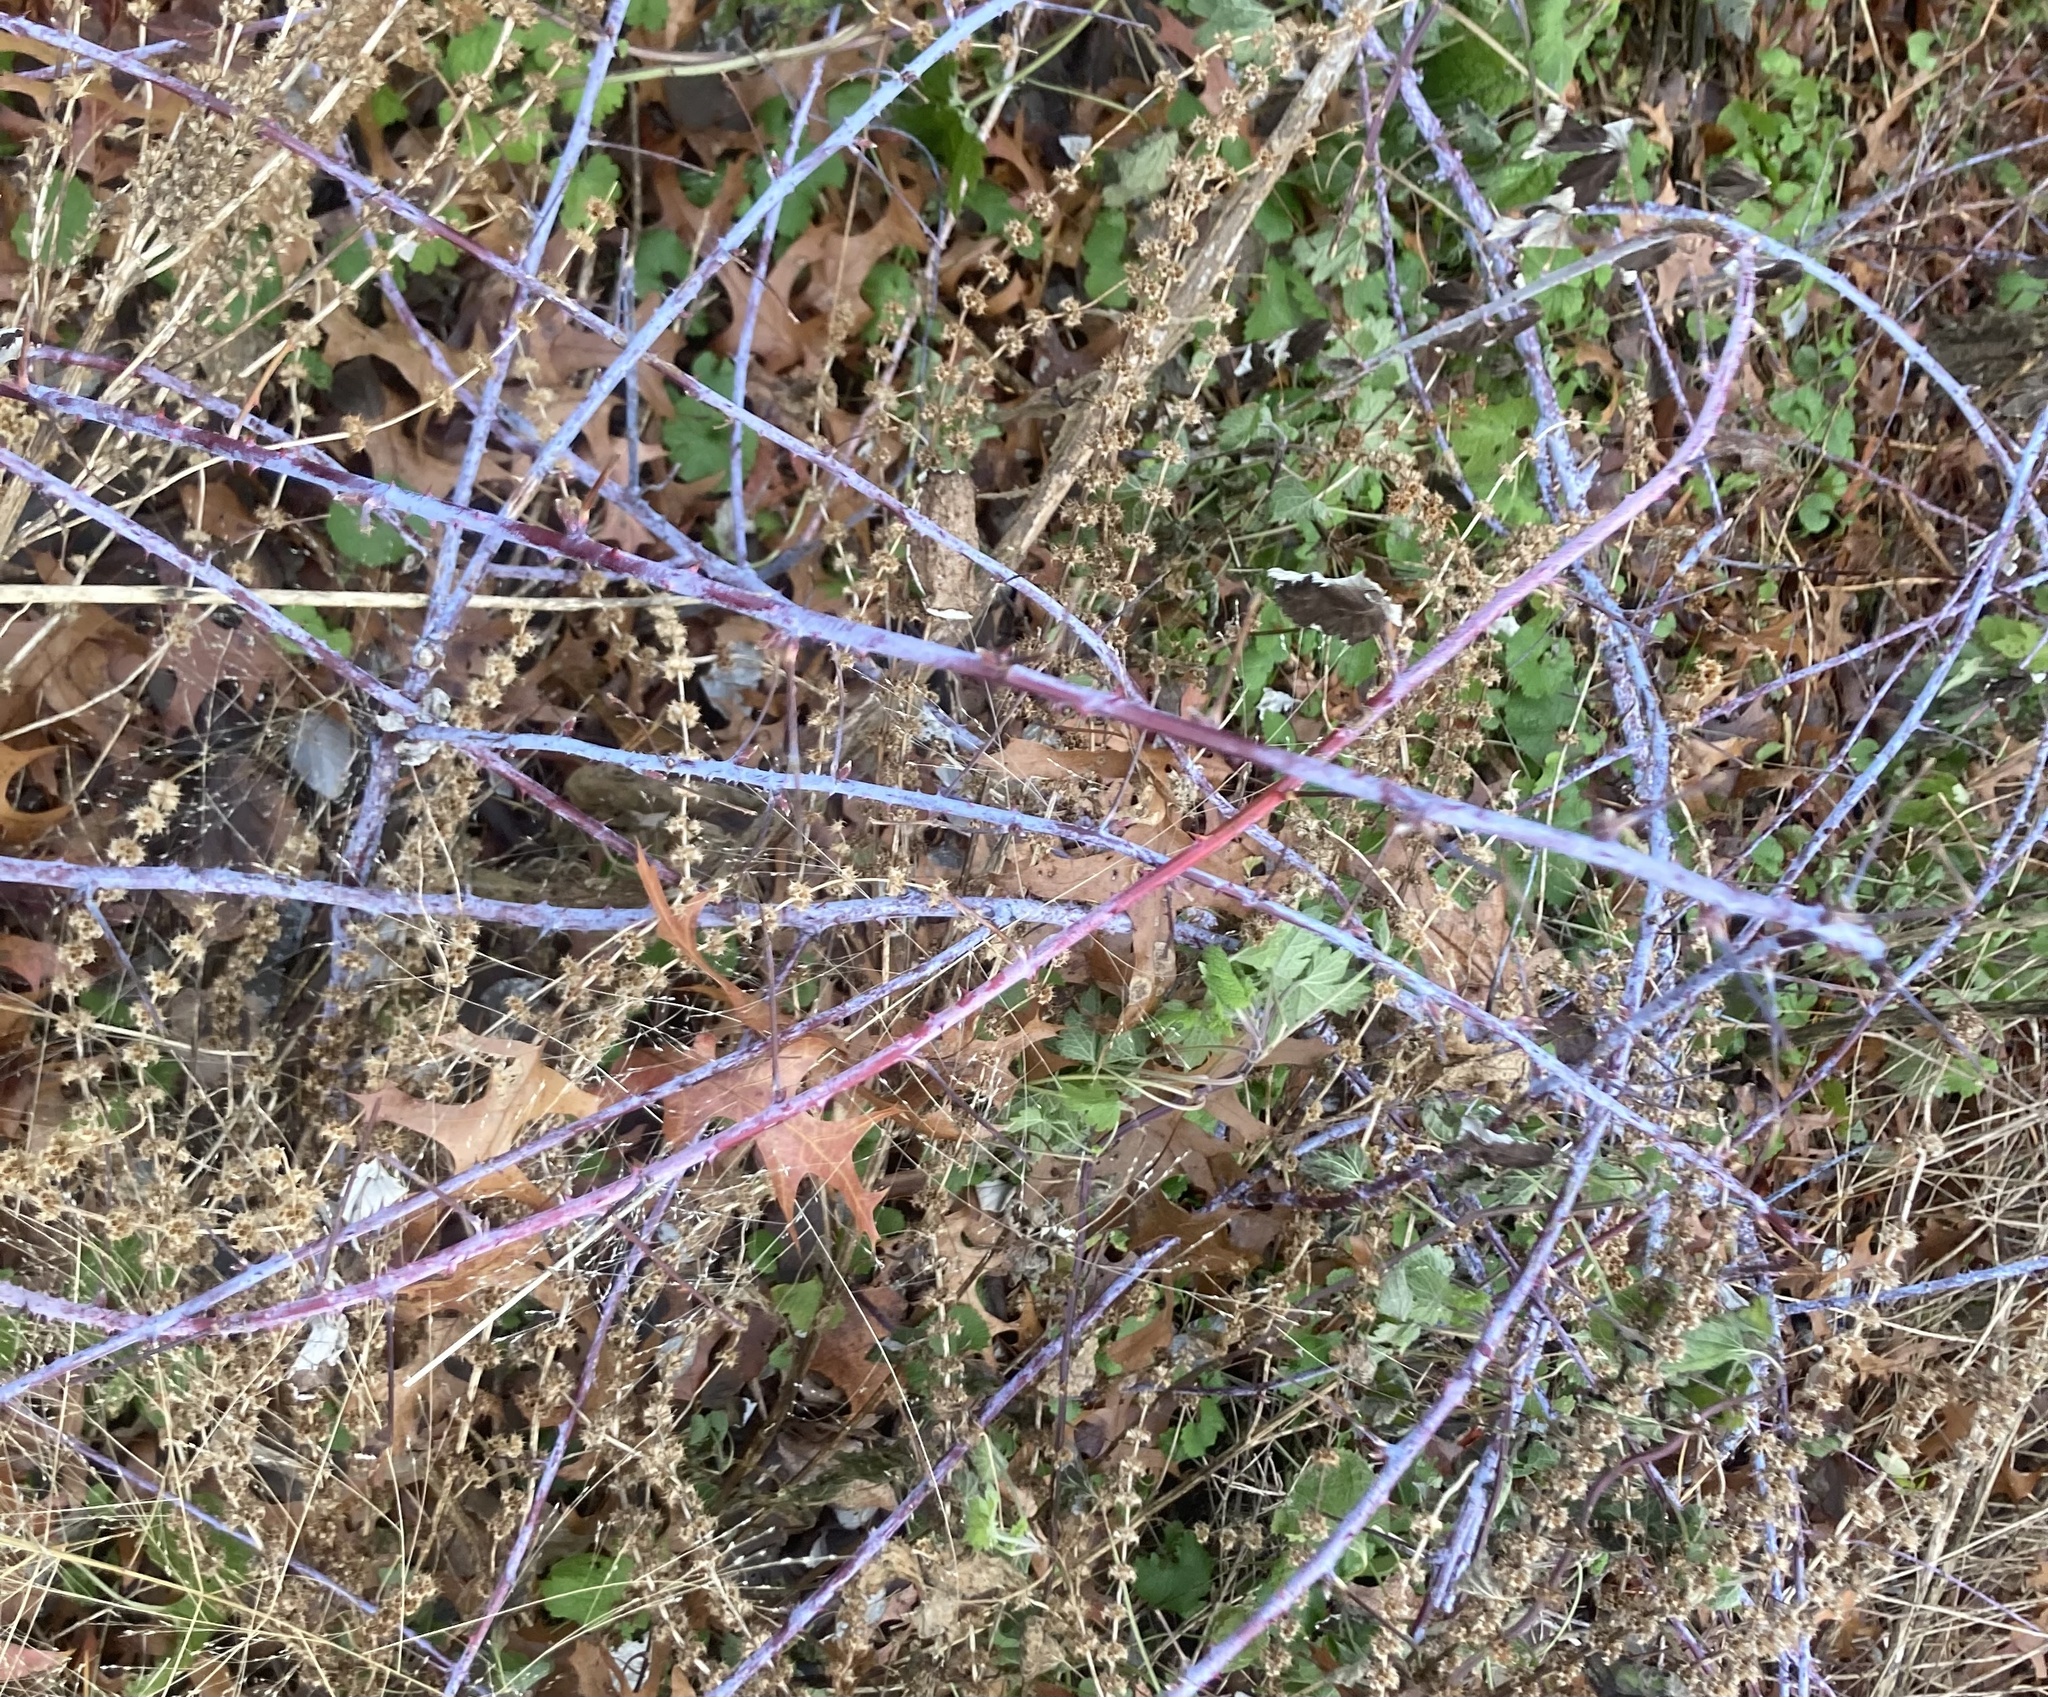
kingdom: Plantae
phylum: Tracheophyta
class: Magnoliopsida
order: Rosales
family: Rosaceae
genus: Rubus
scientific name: Rubus occidentalis
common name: Black raspberry
